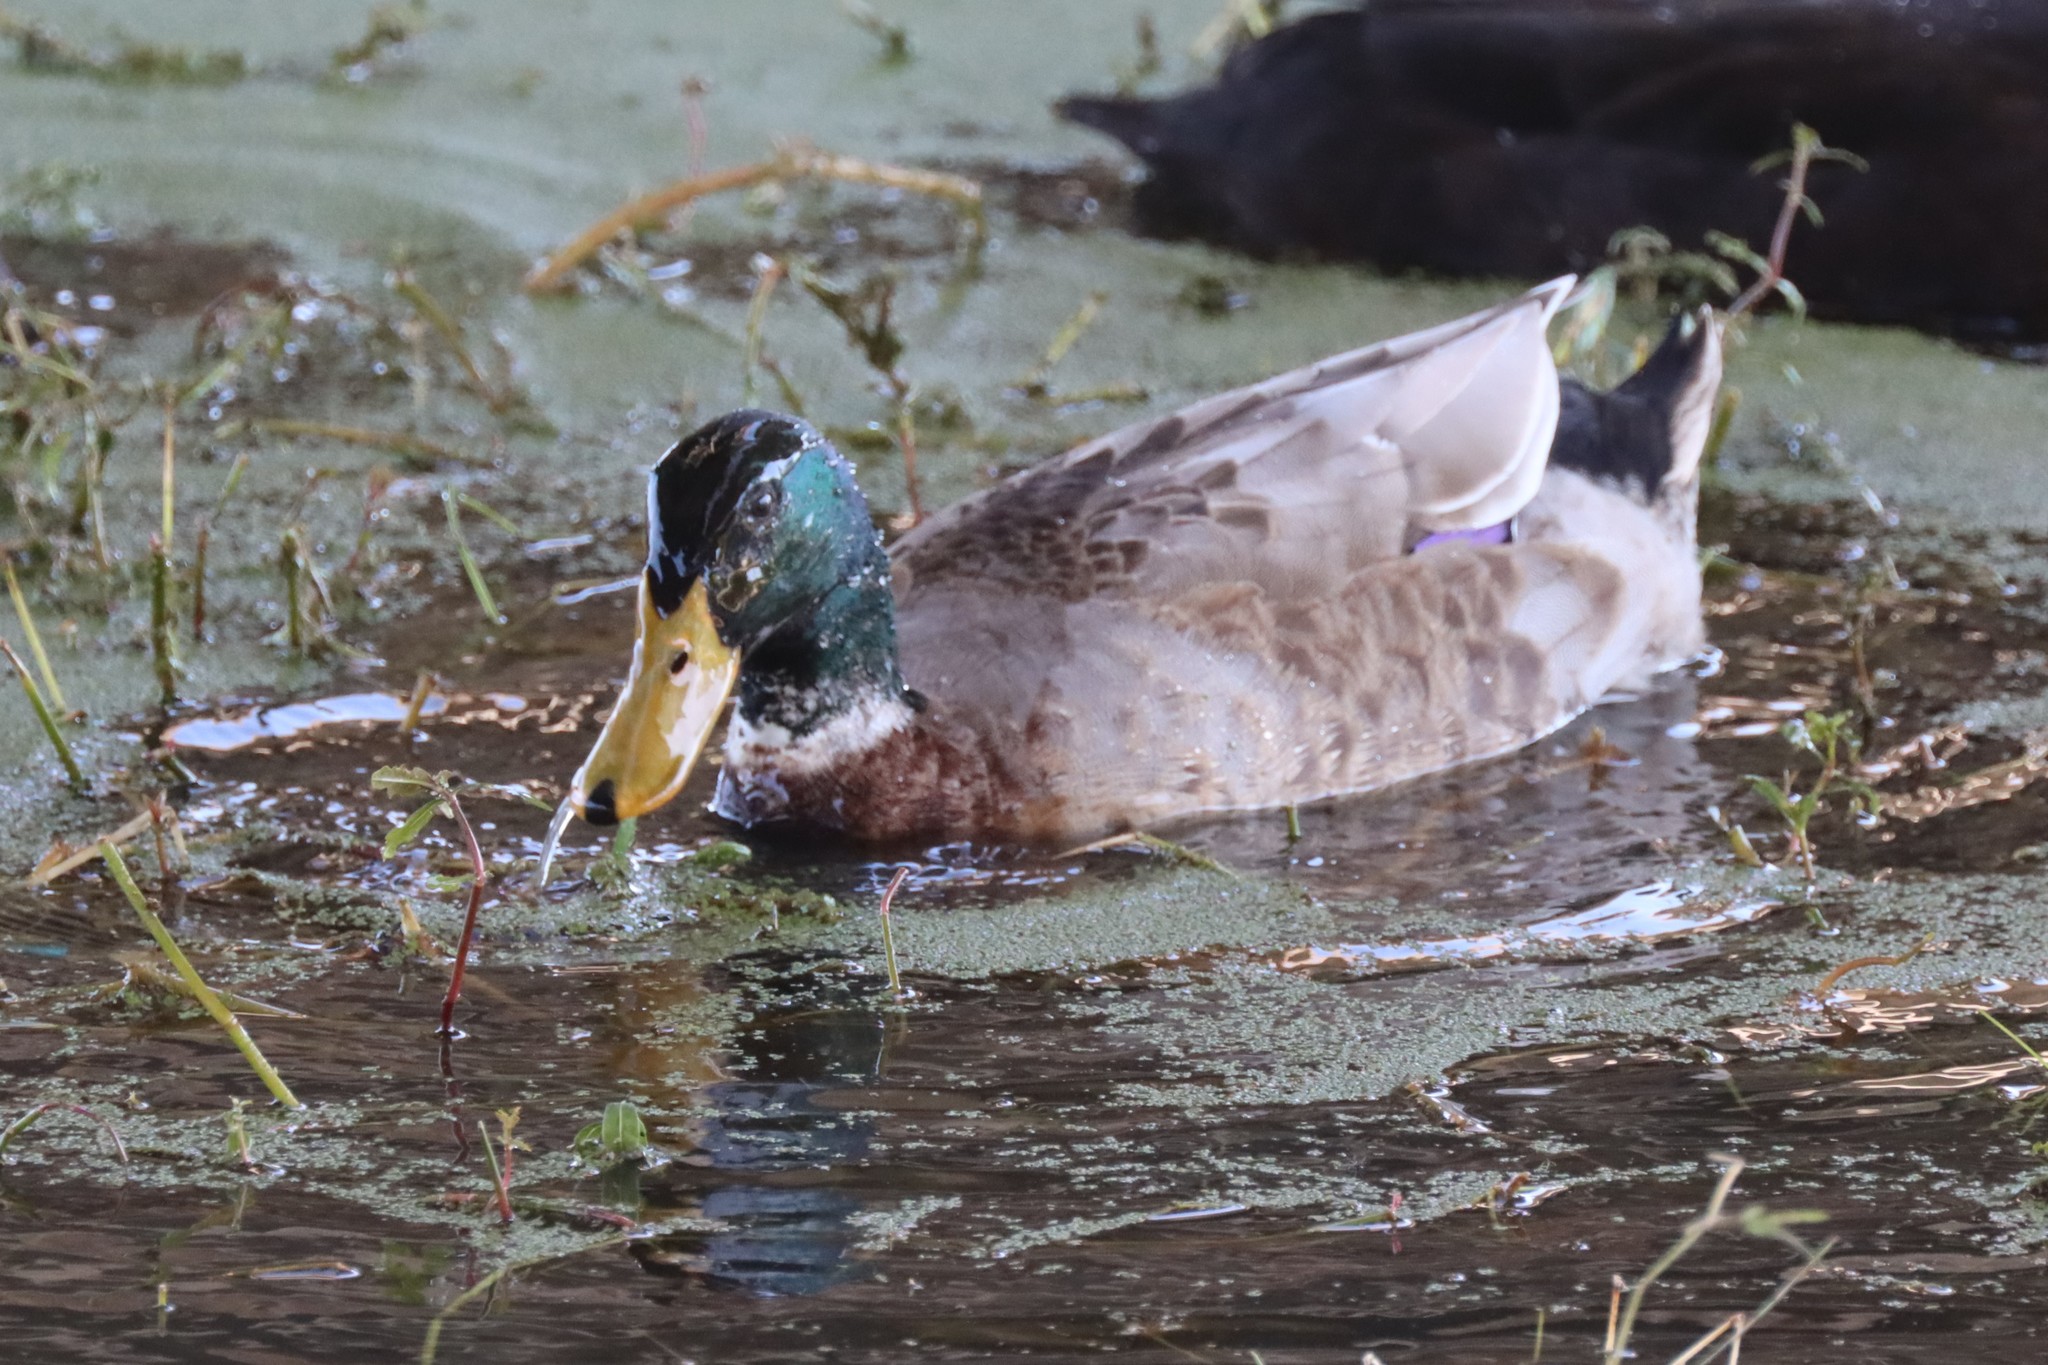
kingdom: Animalia
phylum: Chordata
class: Aves
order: Anseriformes
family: Anatidae
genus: Anas
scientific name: Anas platyrhynchos
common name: Mallard
